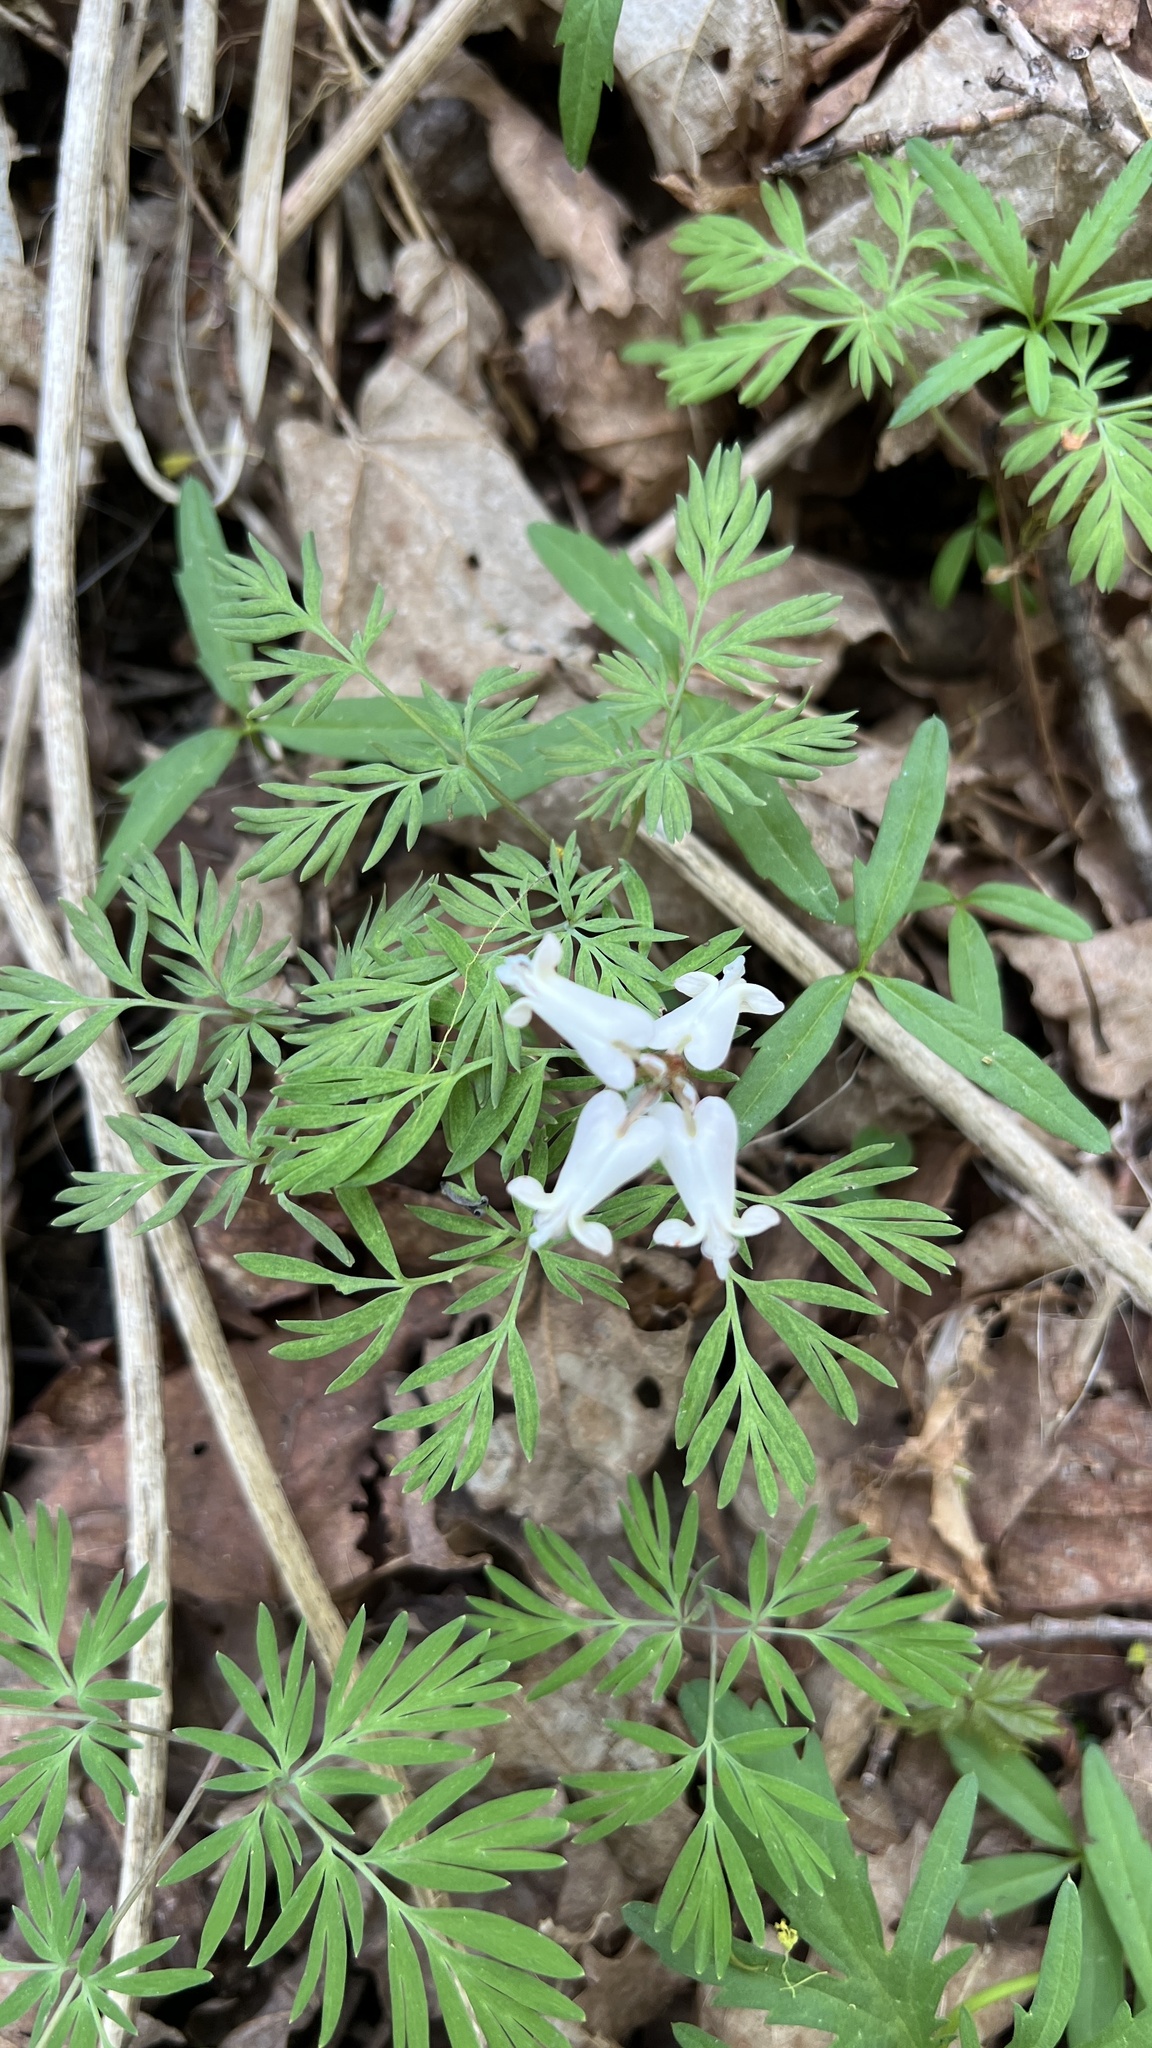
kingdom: Plantae
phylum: Tracheophyta
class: Magnoliopsida
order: Ranunculales
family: Papaveraceae
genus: Dicentra
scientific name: Dicentra canadensis
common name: Squirrel-corn
